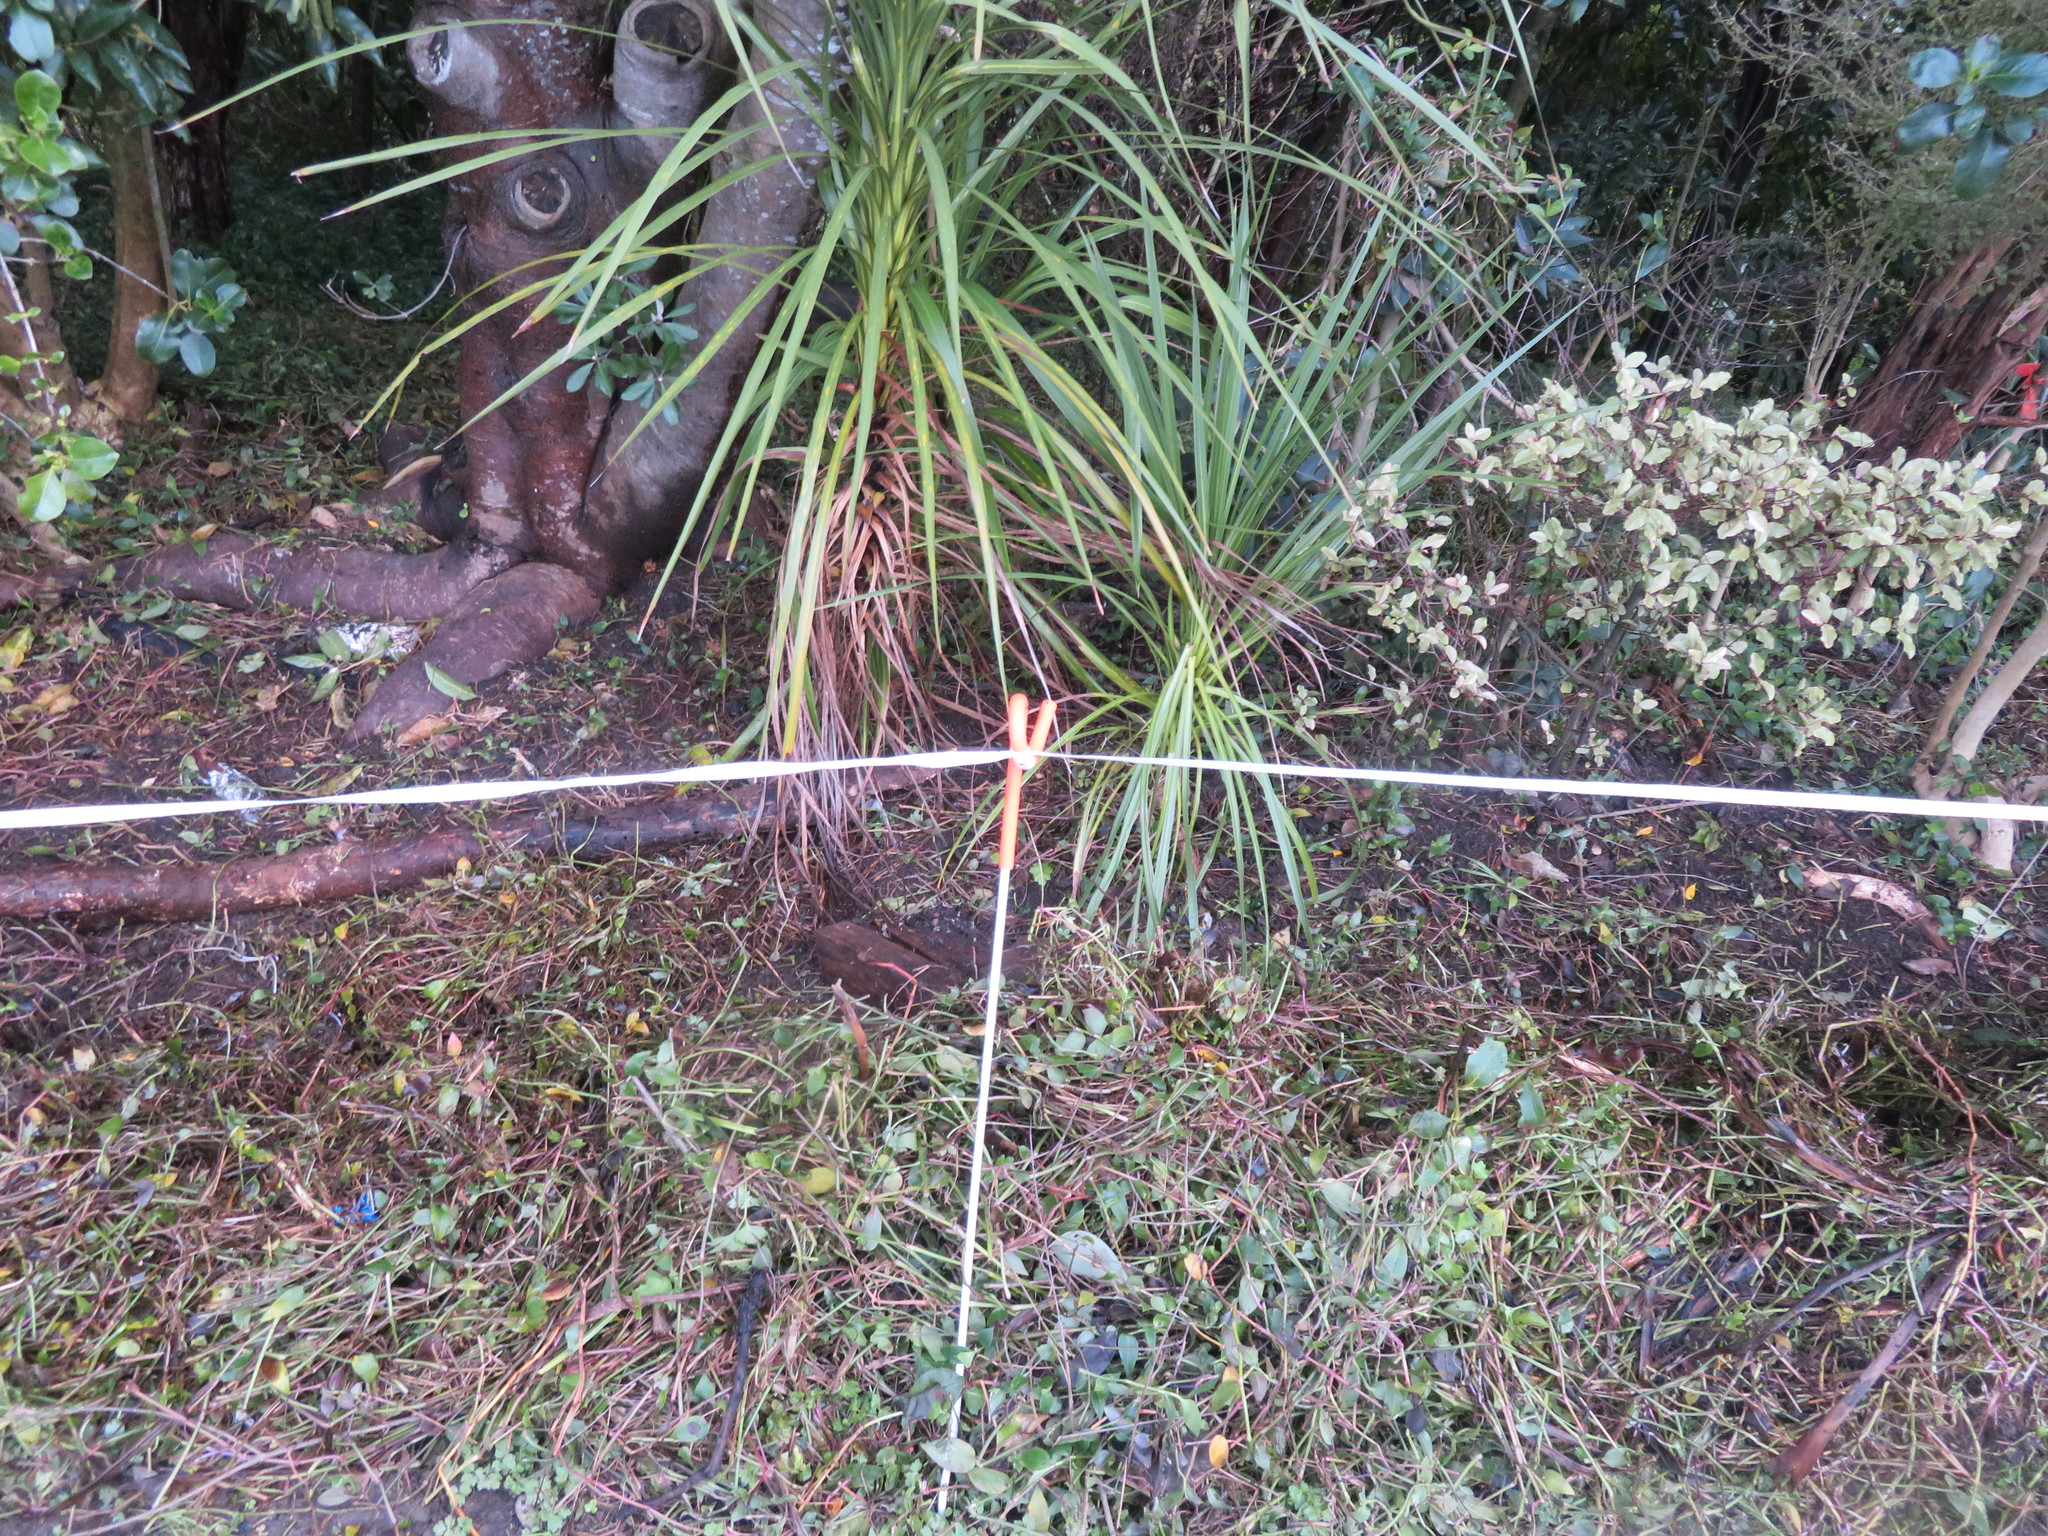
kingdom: Plantae
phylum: Tracheophyta
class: Liliopsida
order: Asparagales
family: Asparagaceae
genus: Cordyline
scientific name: Cordyline australis
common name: Cabbage-palm
